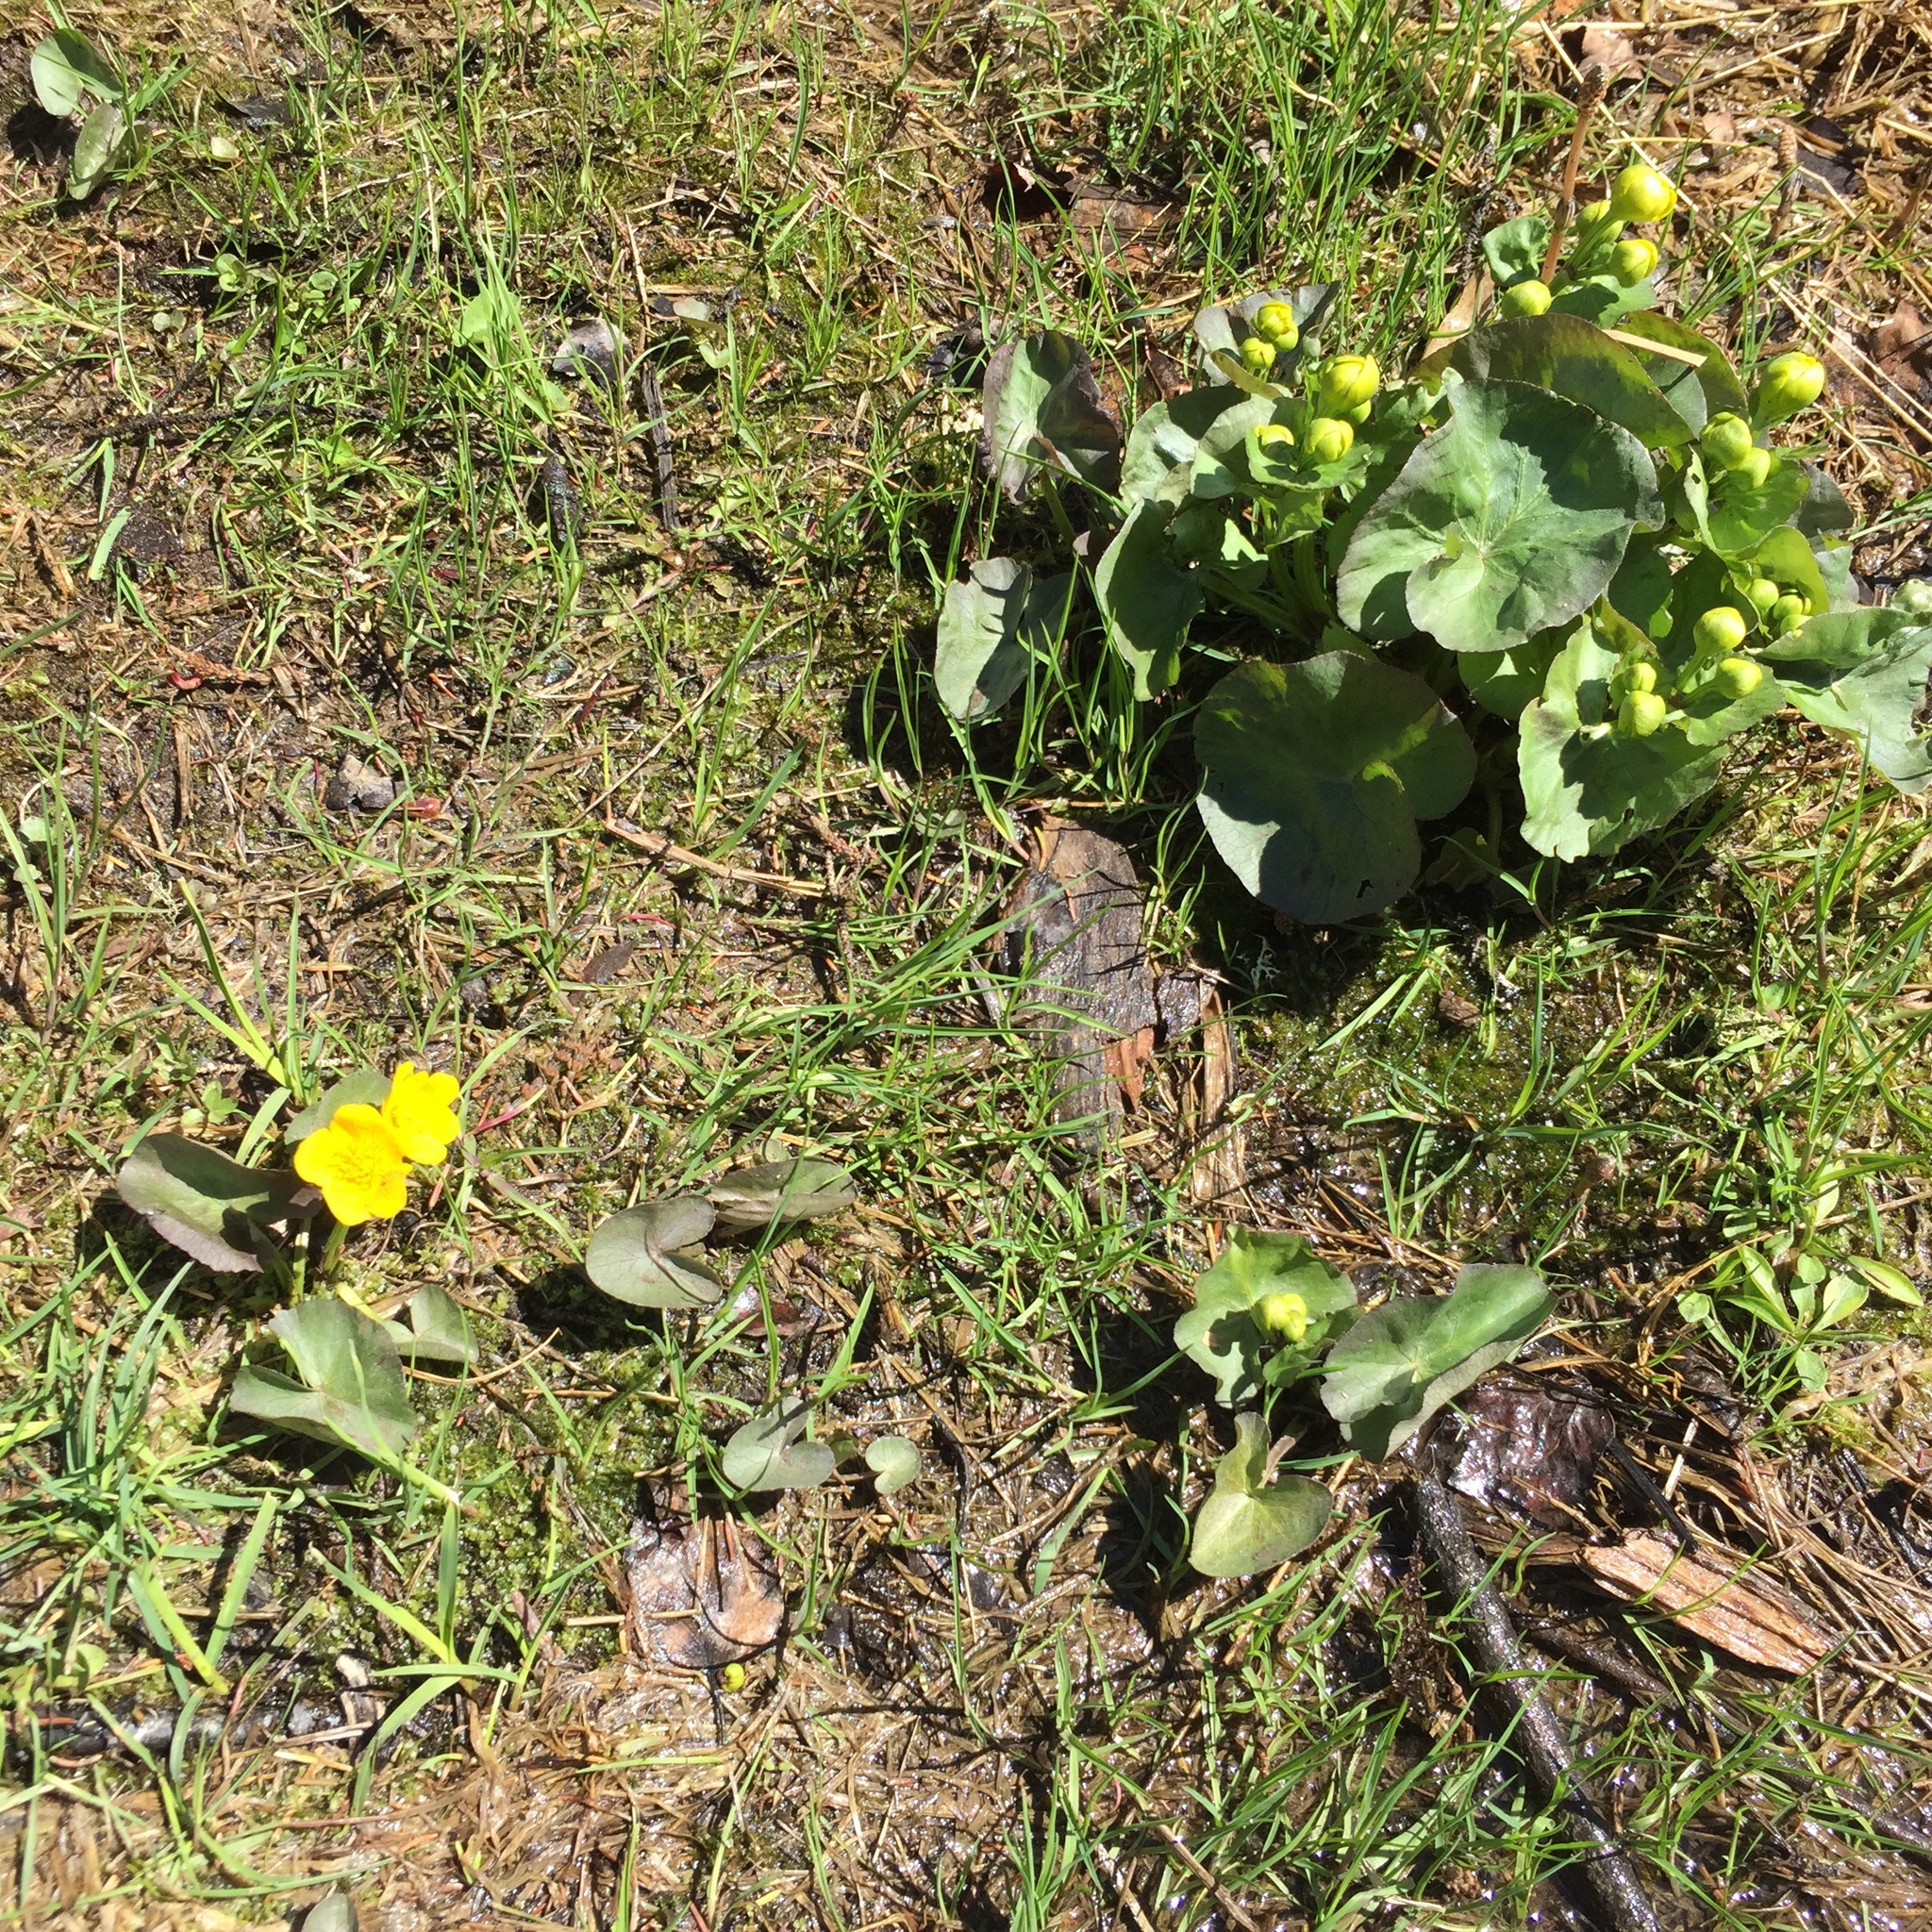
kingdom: Plantae
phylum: Tracheophyta
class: Magnoliopsida
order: Ranunculales
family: Ranunculaceae
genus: Caltha
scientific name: Caltha palustris
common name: Marsh marigold
